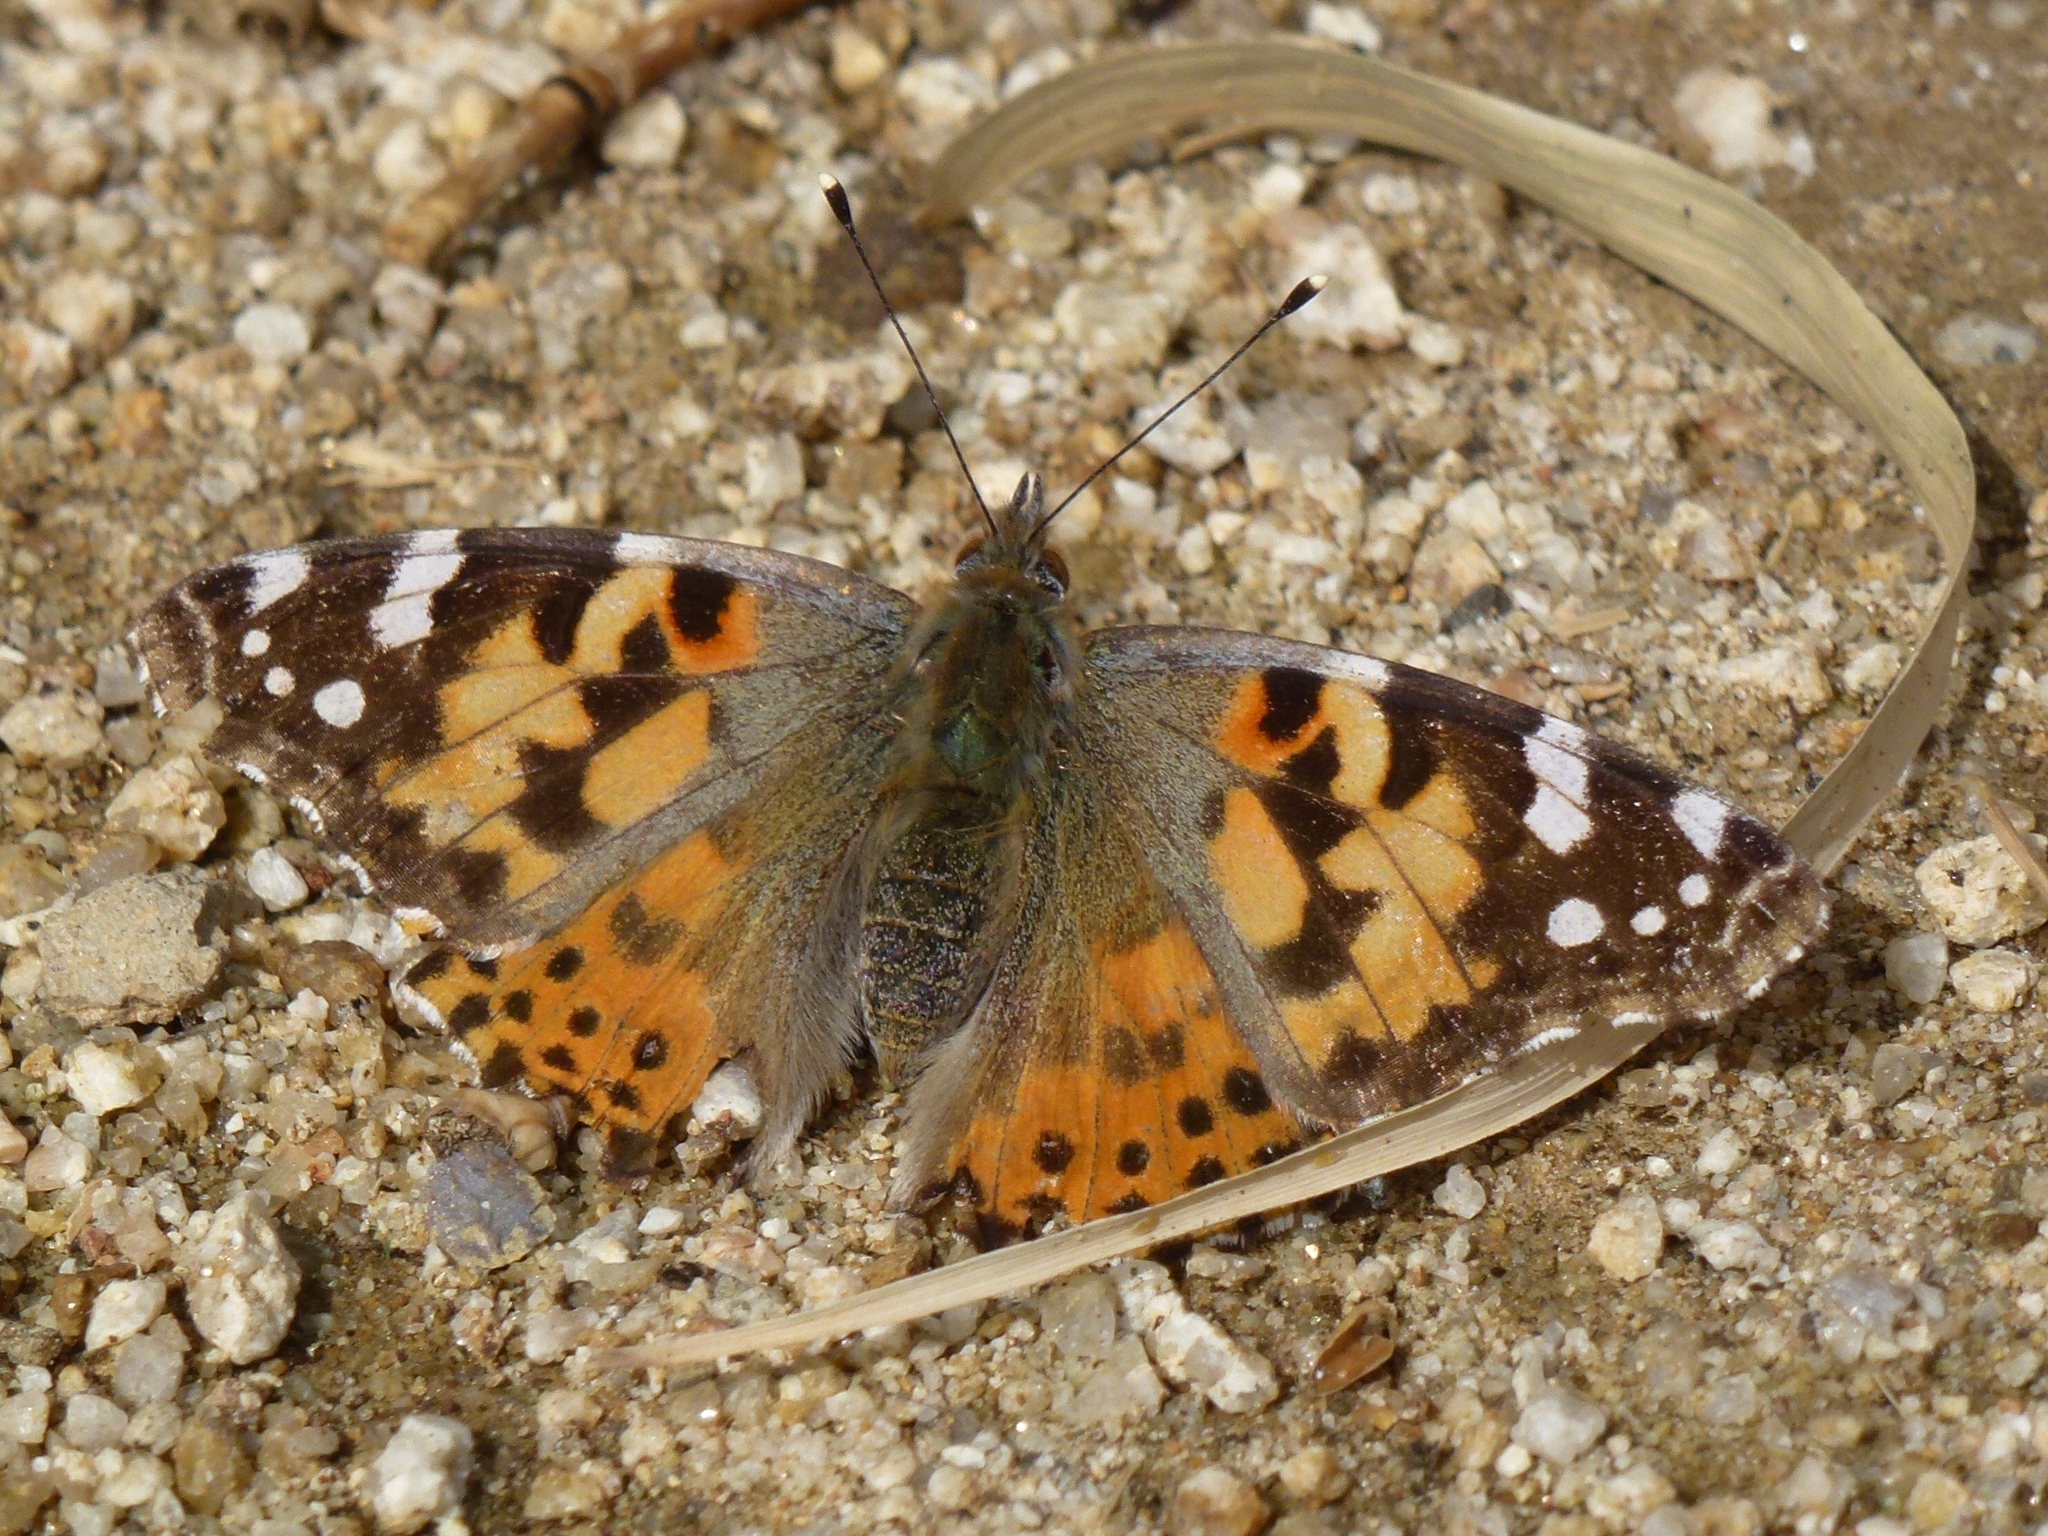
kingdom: Animalia
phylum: Arthropoda
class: Insecta
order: Lepidoptera
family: Nymphalidae
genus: Vanessa
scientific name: Vanessa cardui
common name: Painted lady
